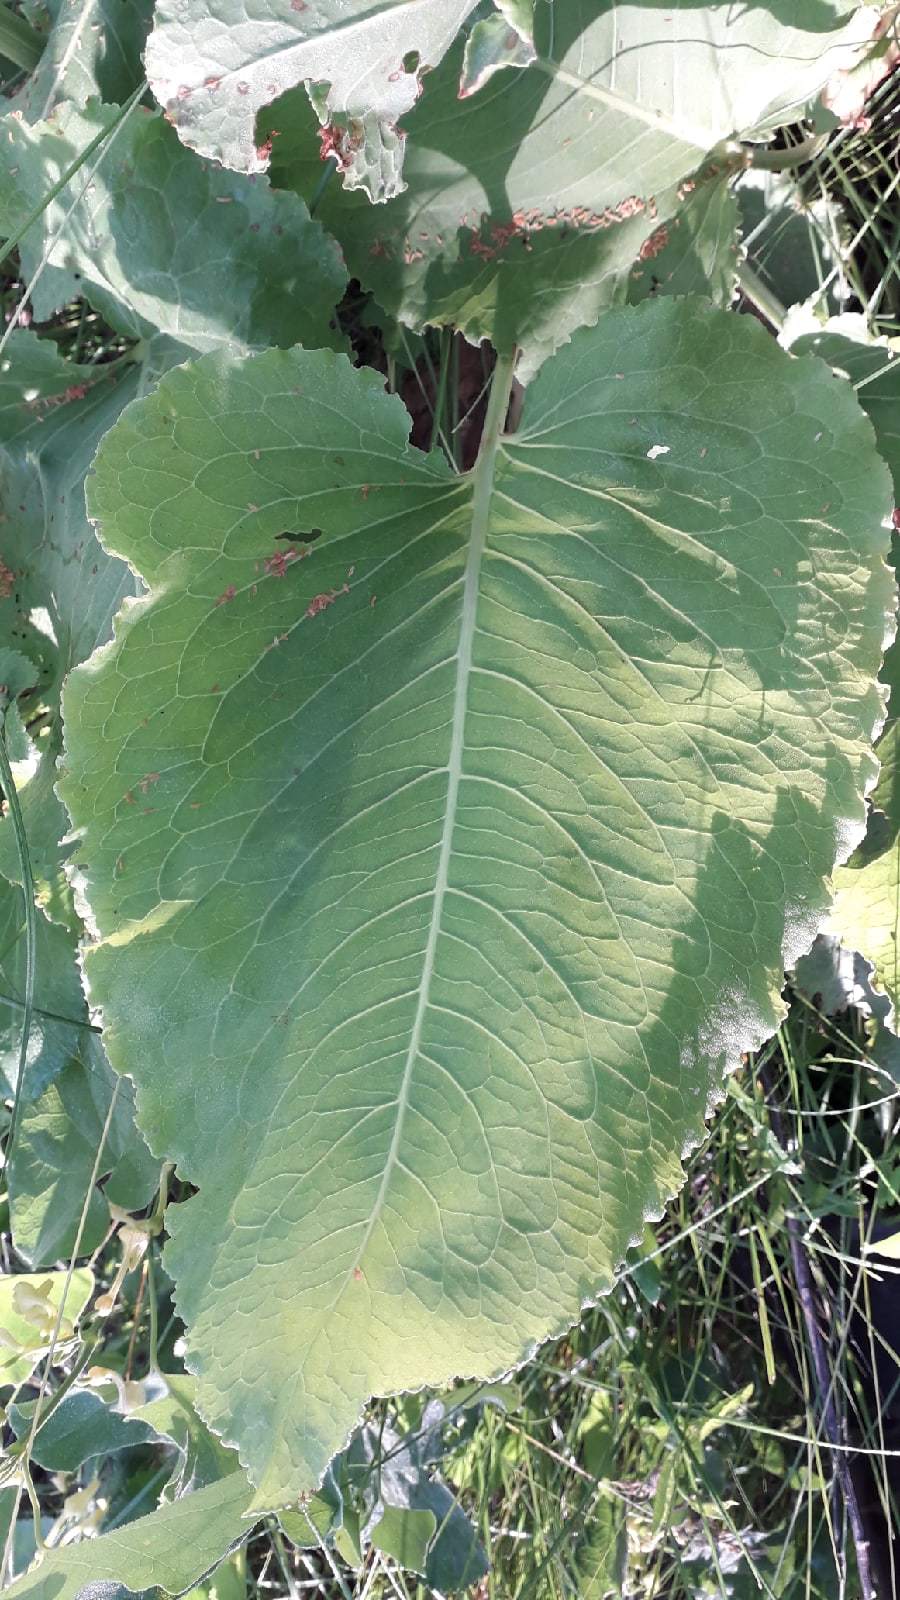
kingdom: Plantae
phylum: Tracheophyta
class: Magnoliopsida
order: Caryophyllales
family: Polygonaceae
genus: Rumex
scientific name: Rumex confertus
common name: Russian dock
